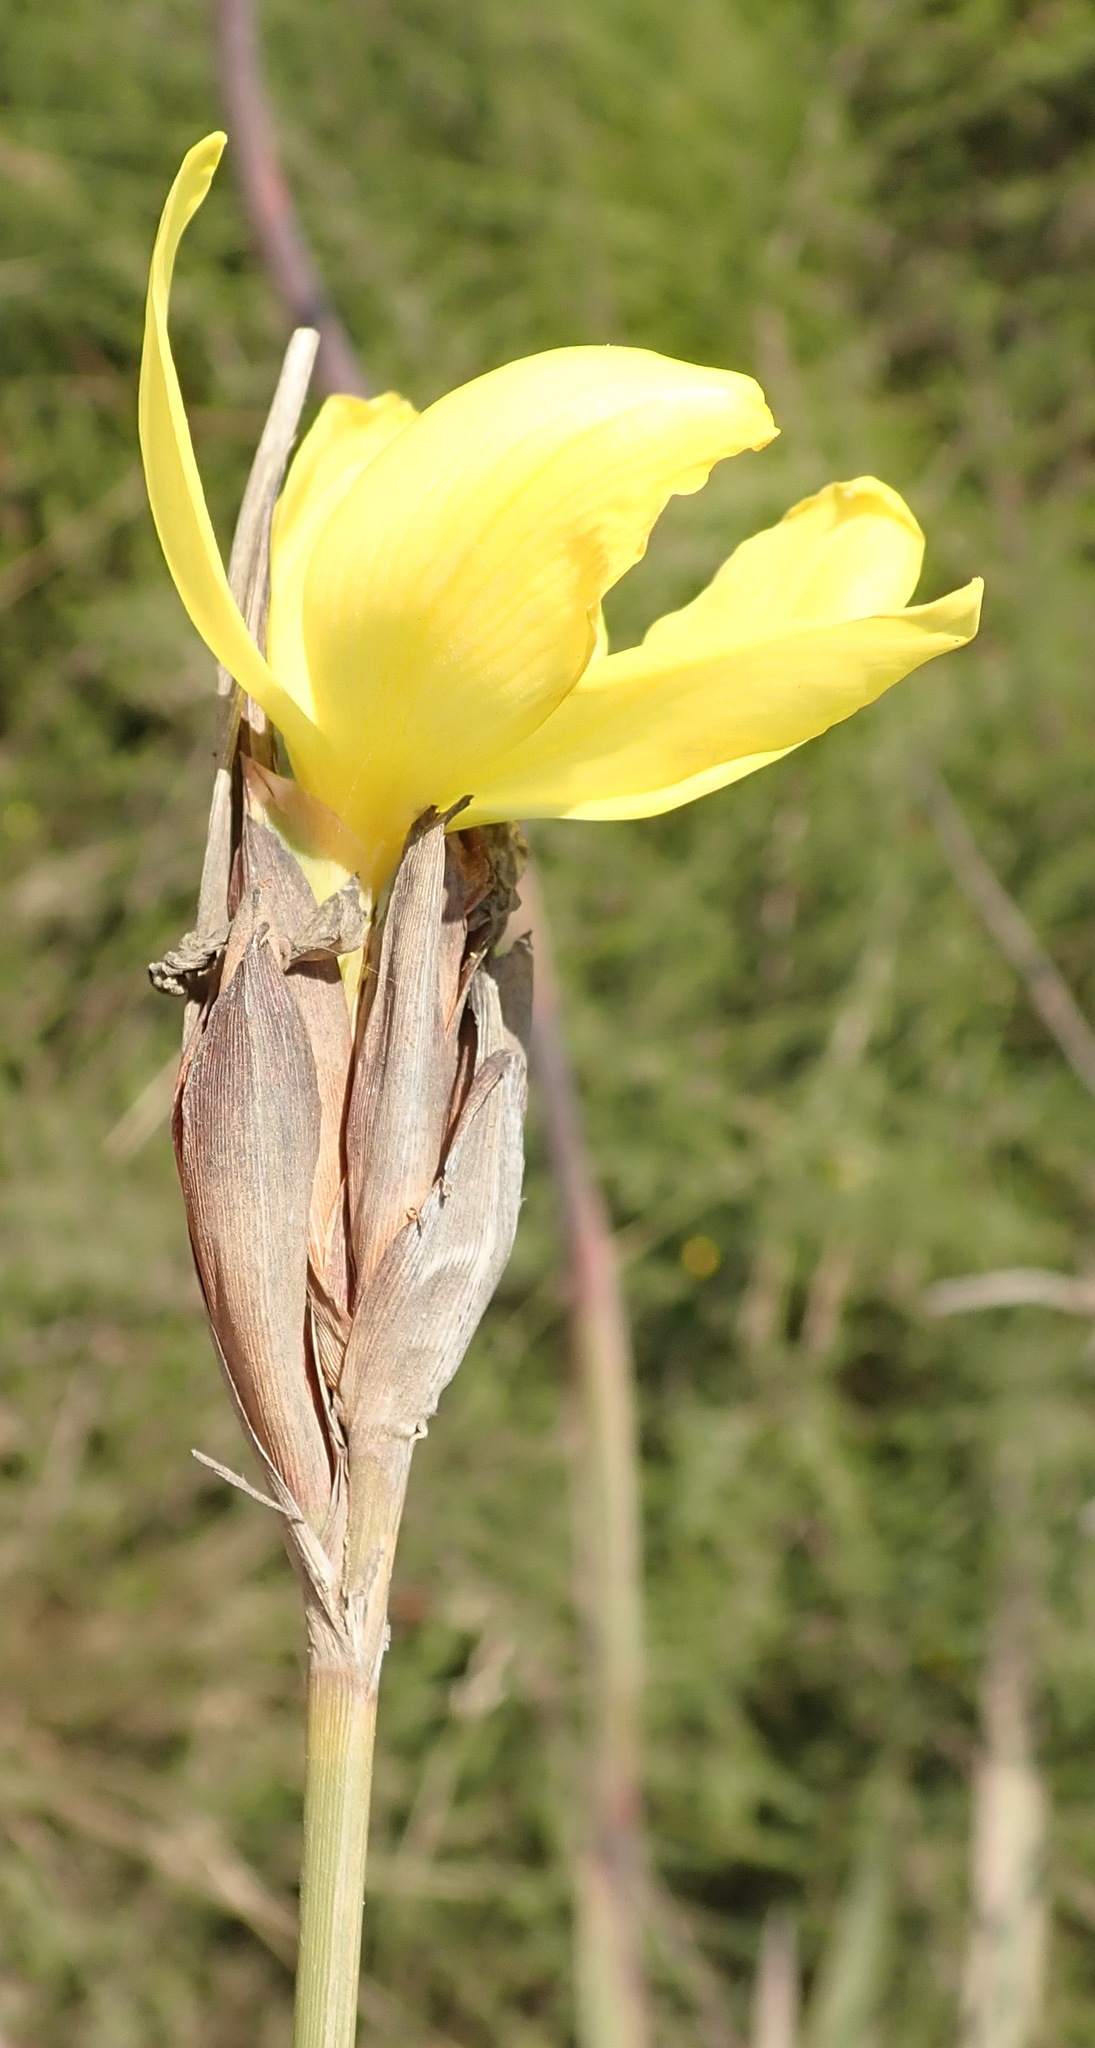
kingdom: Plantae
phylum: Tracheophyta
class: Liliopsida
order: Asparagales
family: Iridaceae
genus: Bobartia
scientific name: Bobartia macrospatha
